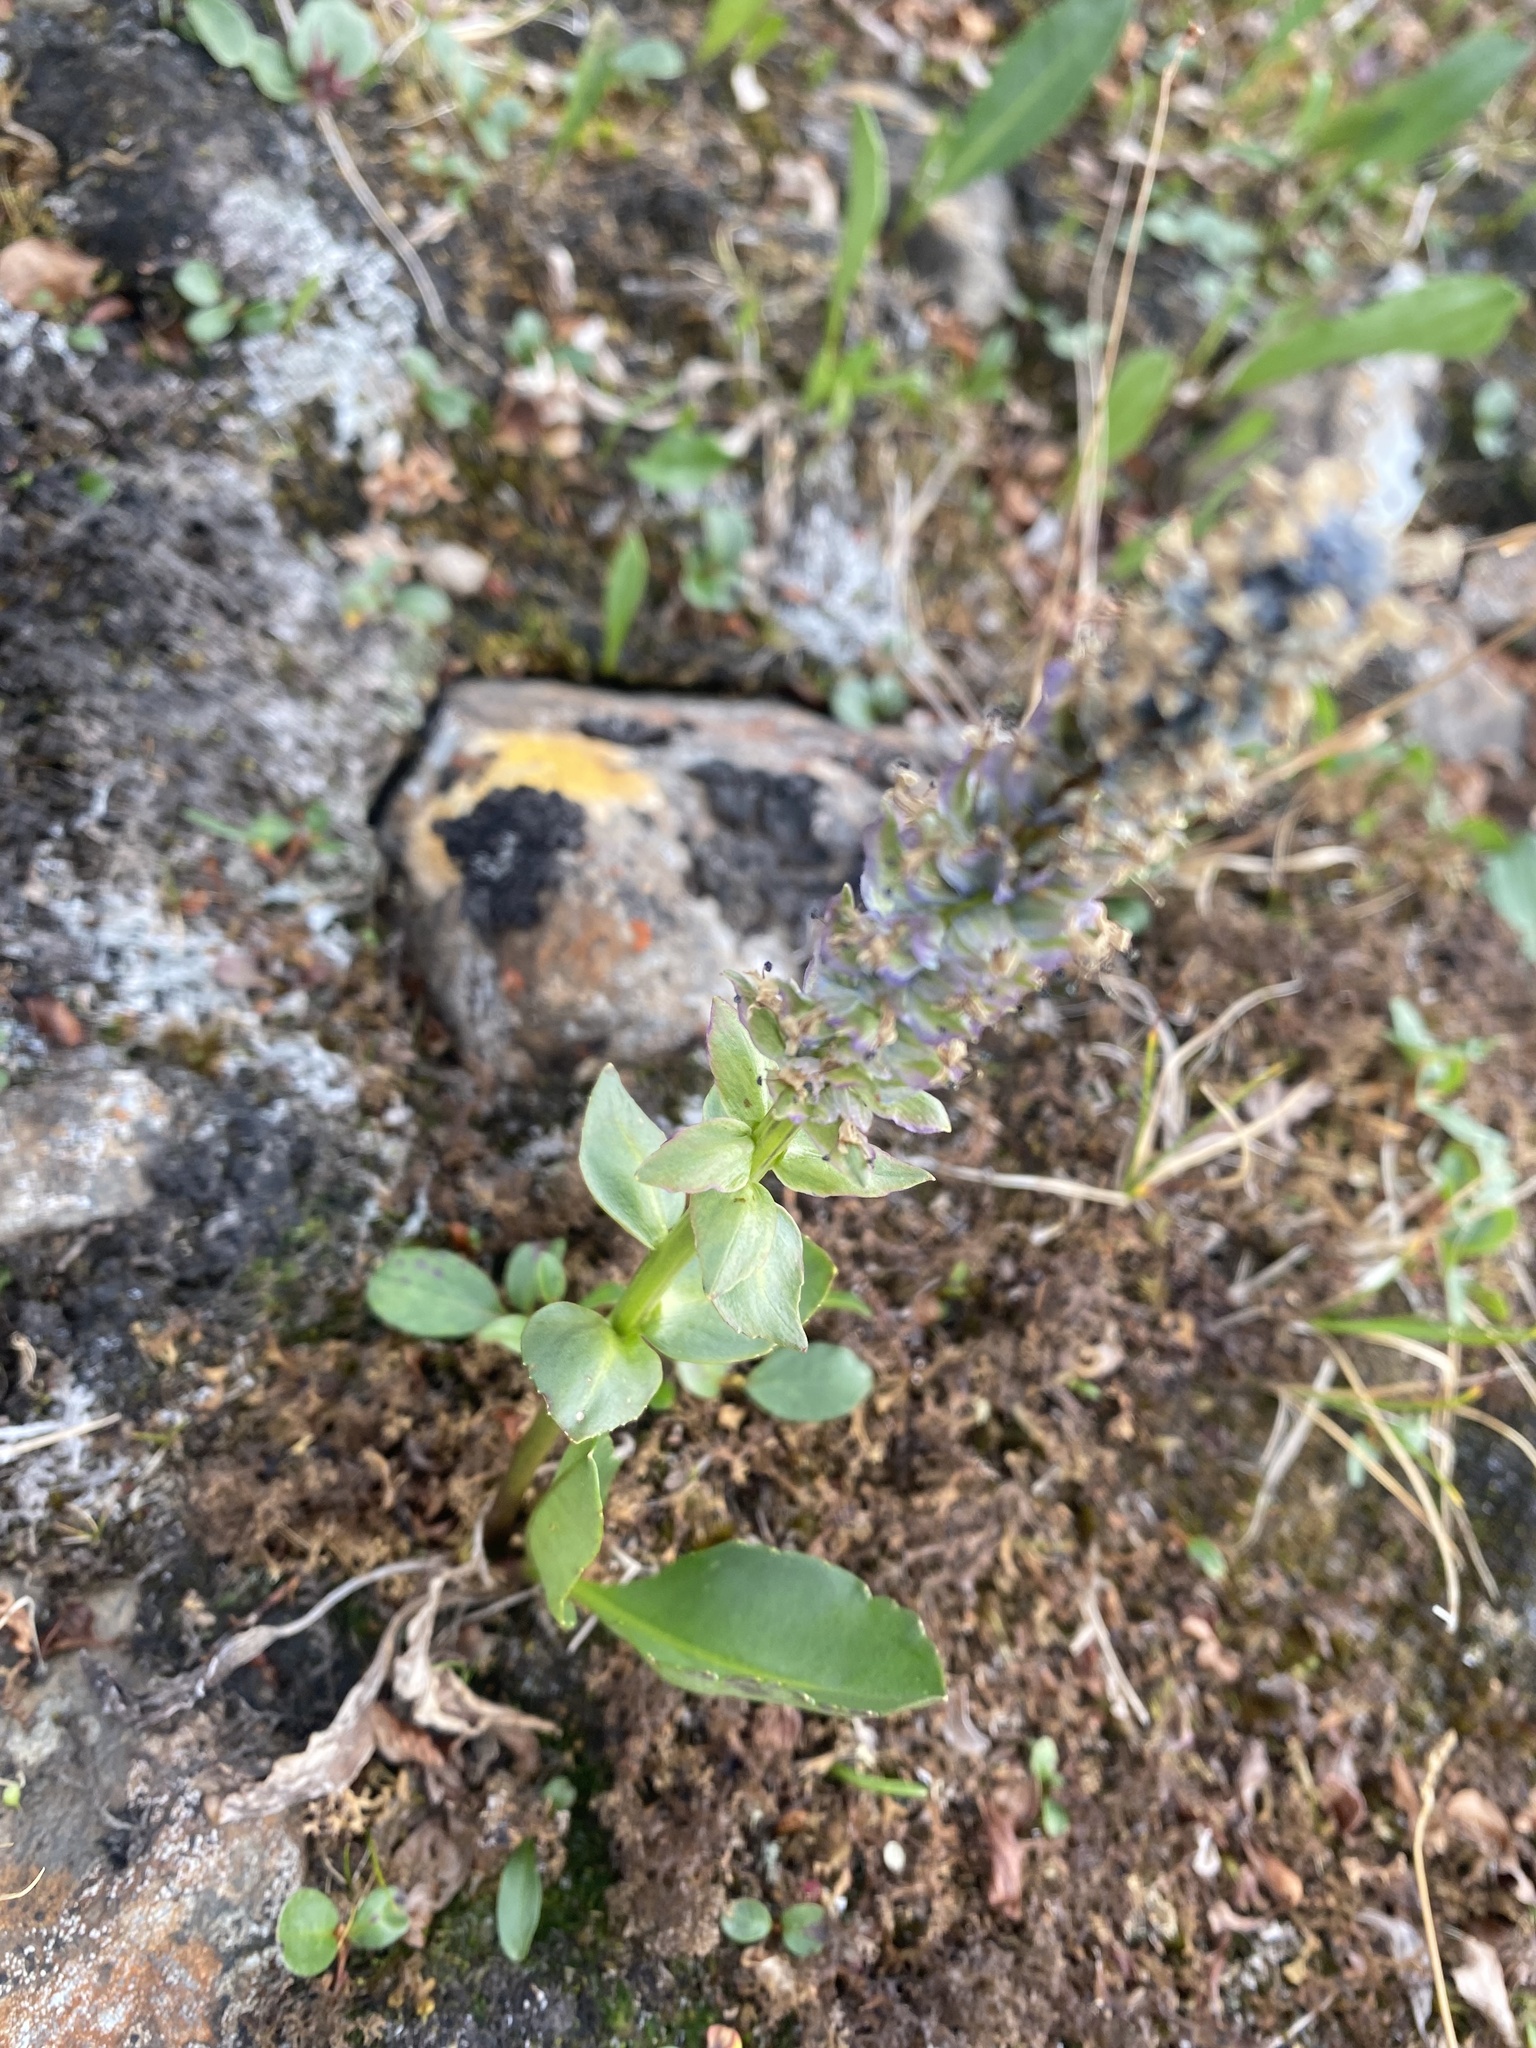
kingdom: Plantae
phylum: Tracheophyta
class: Magnoliopsida
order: Lamiales
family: Plantaginaceae
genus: Lagotis
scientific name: Lagotis glauca
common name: Glaucous weaselsnout
